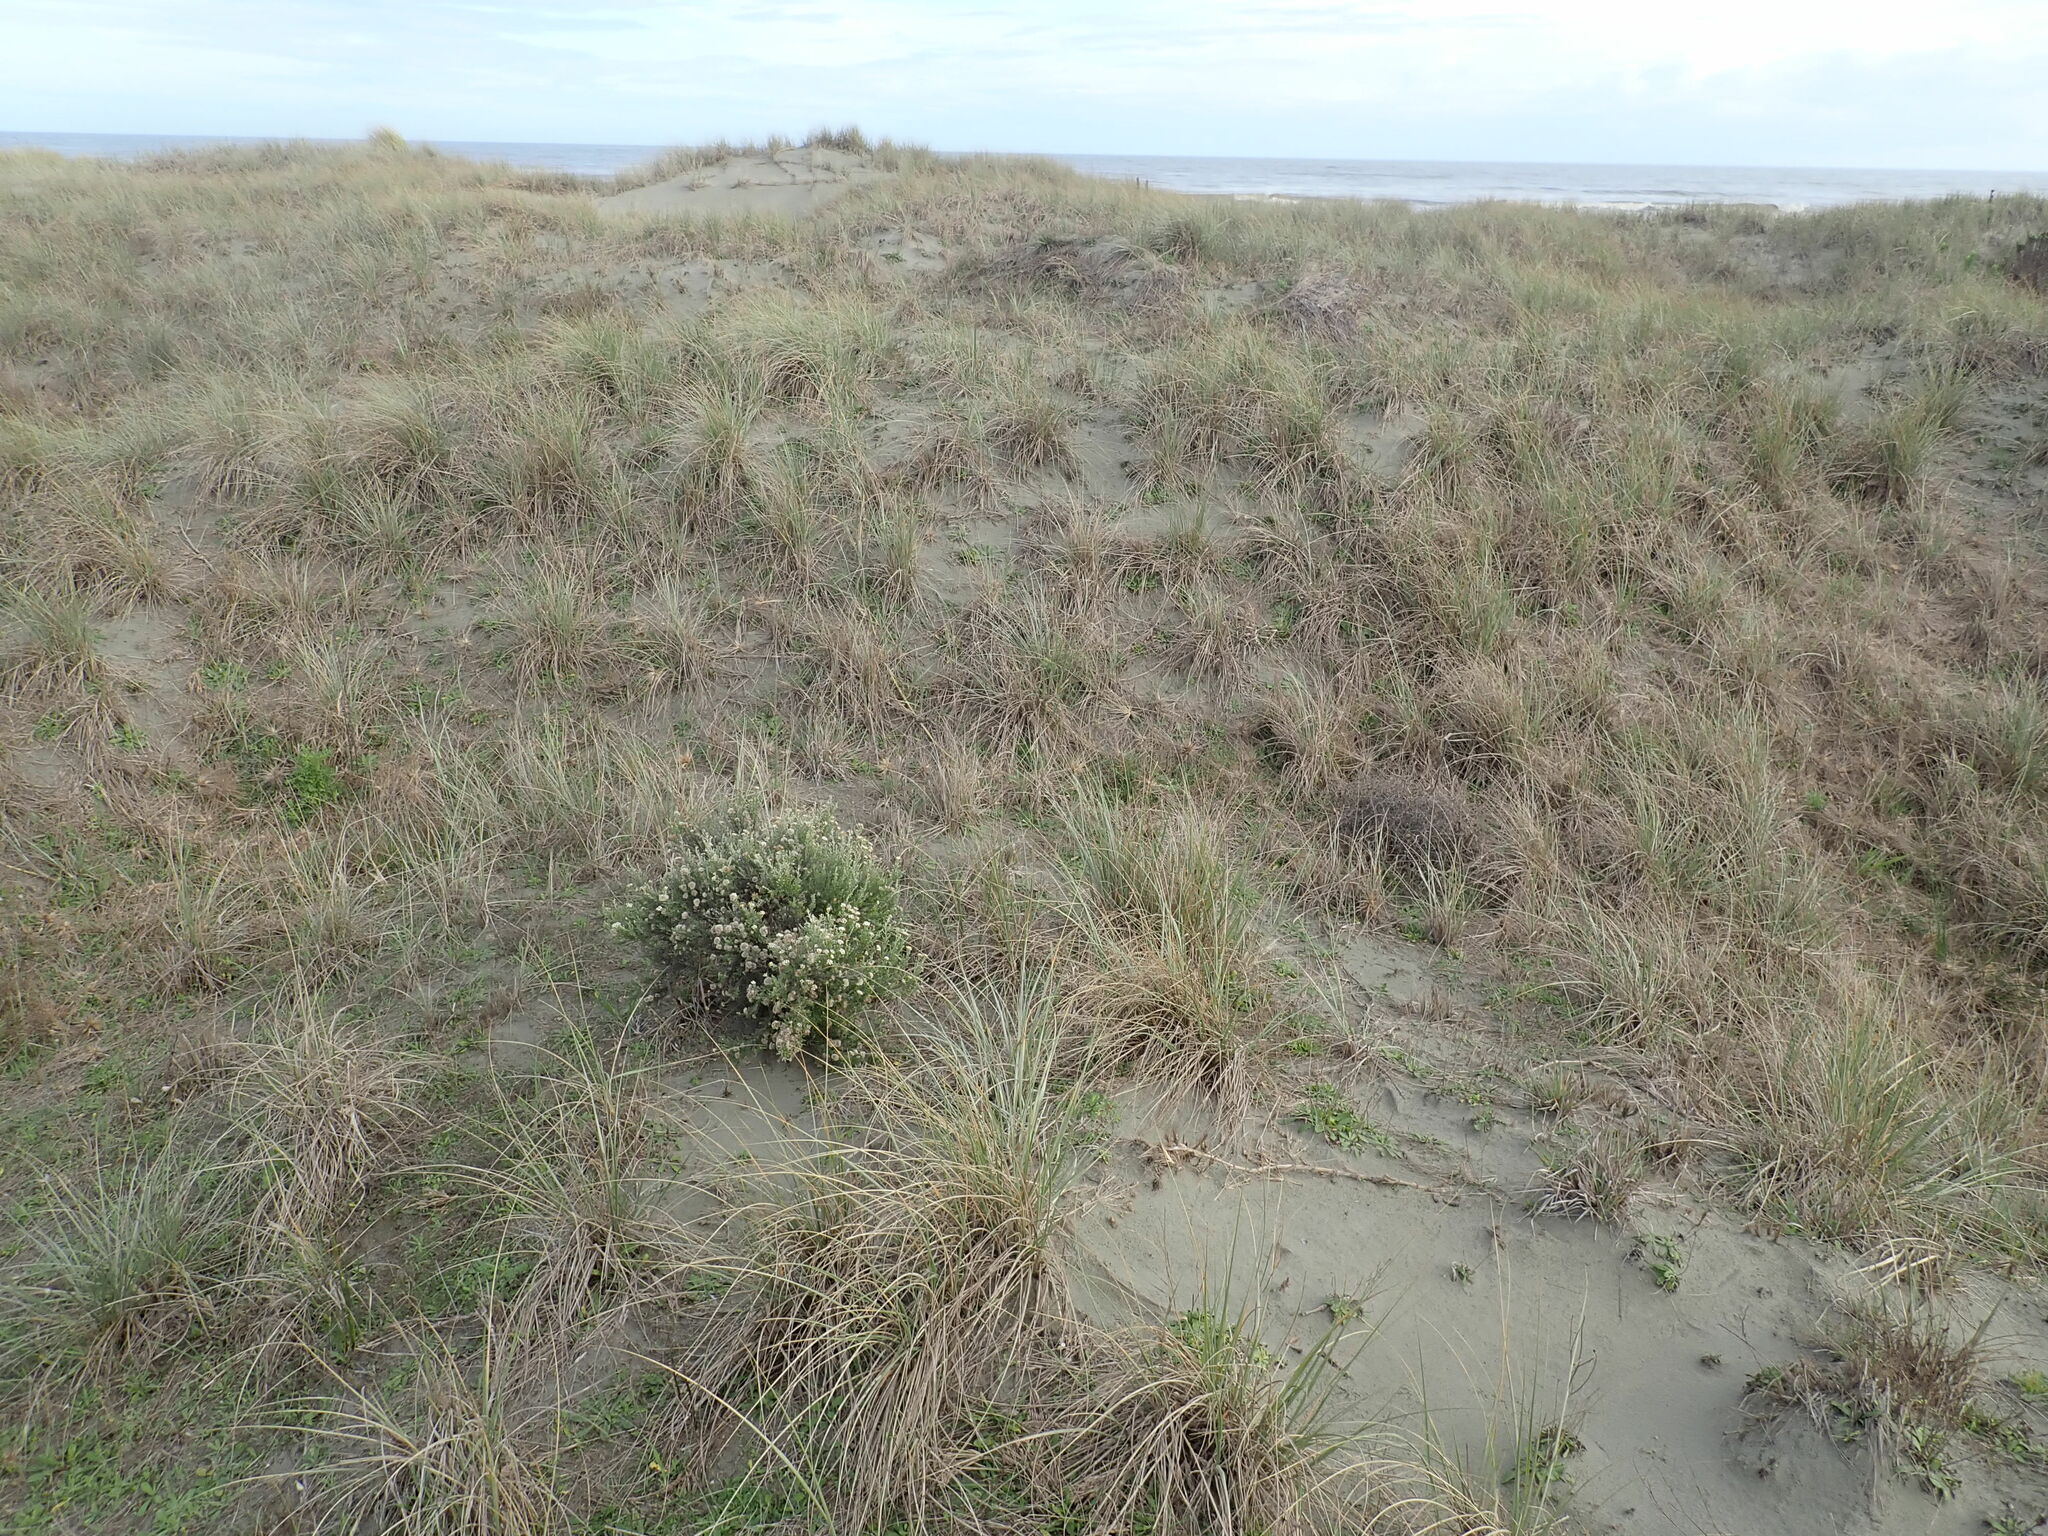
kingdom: Plantae
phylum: Tracheophyta
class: Magnoliopsida
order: Asterales
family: Asteraceae
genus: Ozothamnus
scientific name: Ozothamnus leptophyllus
